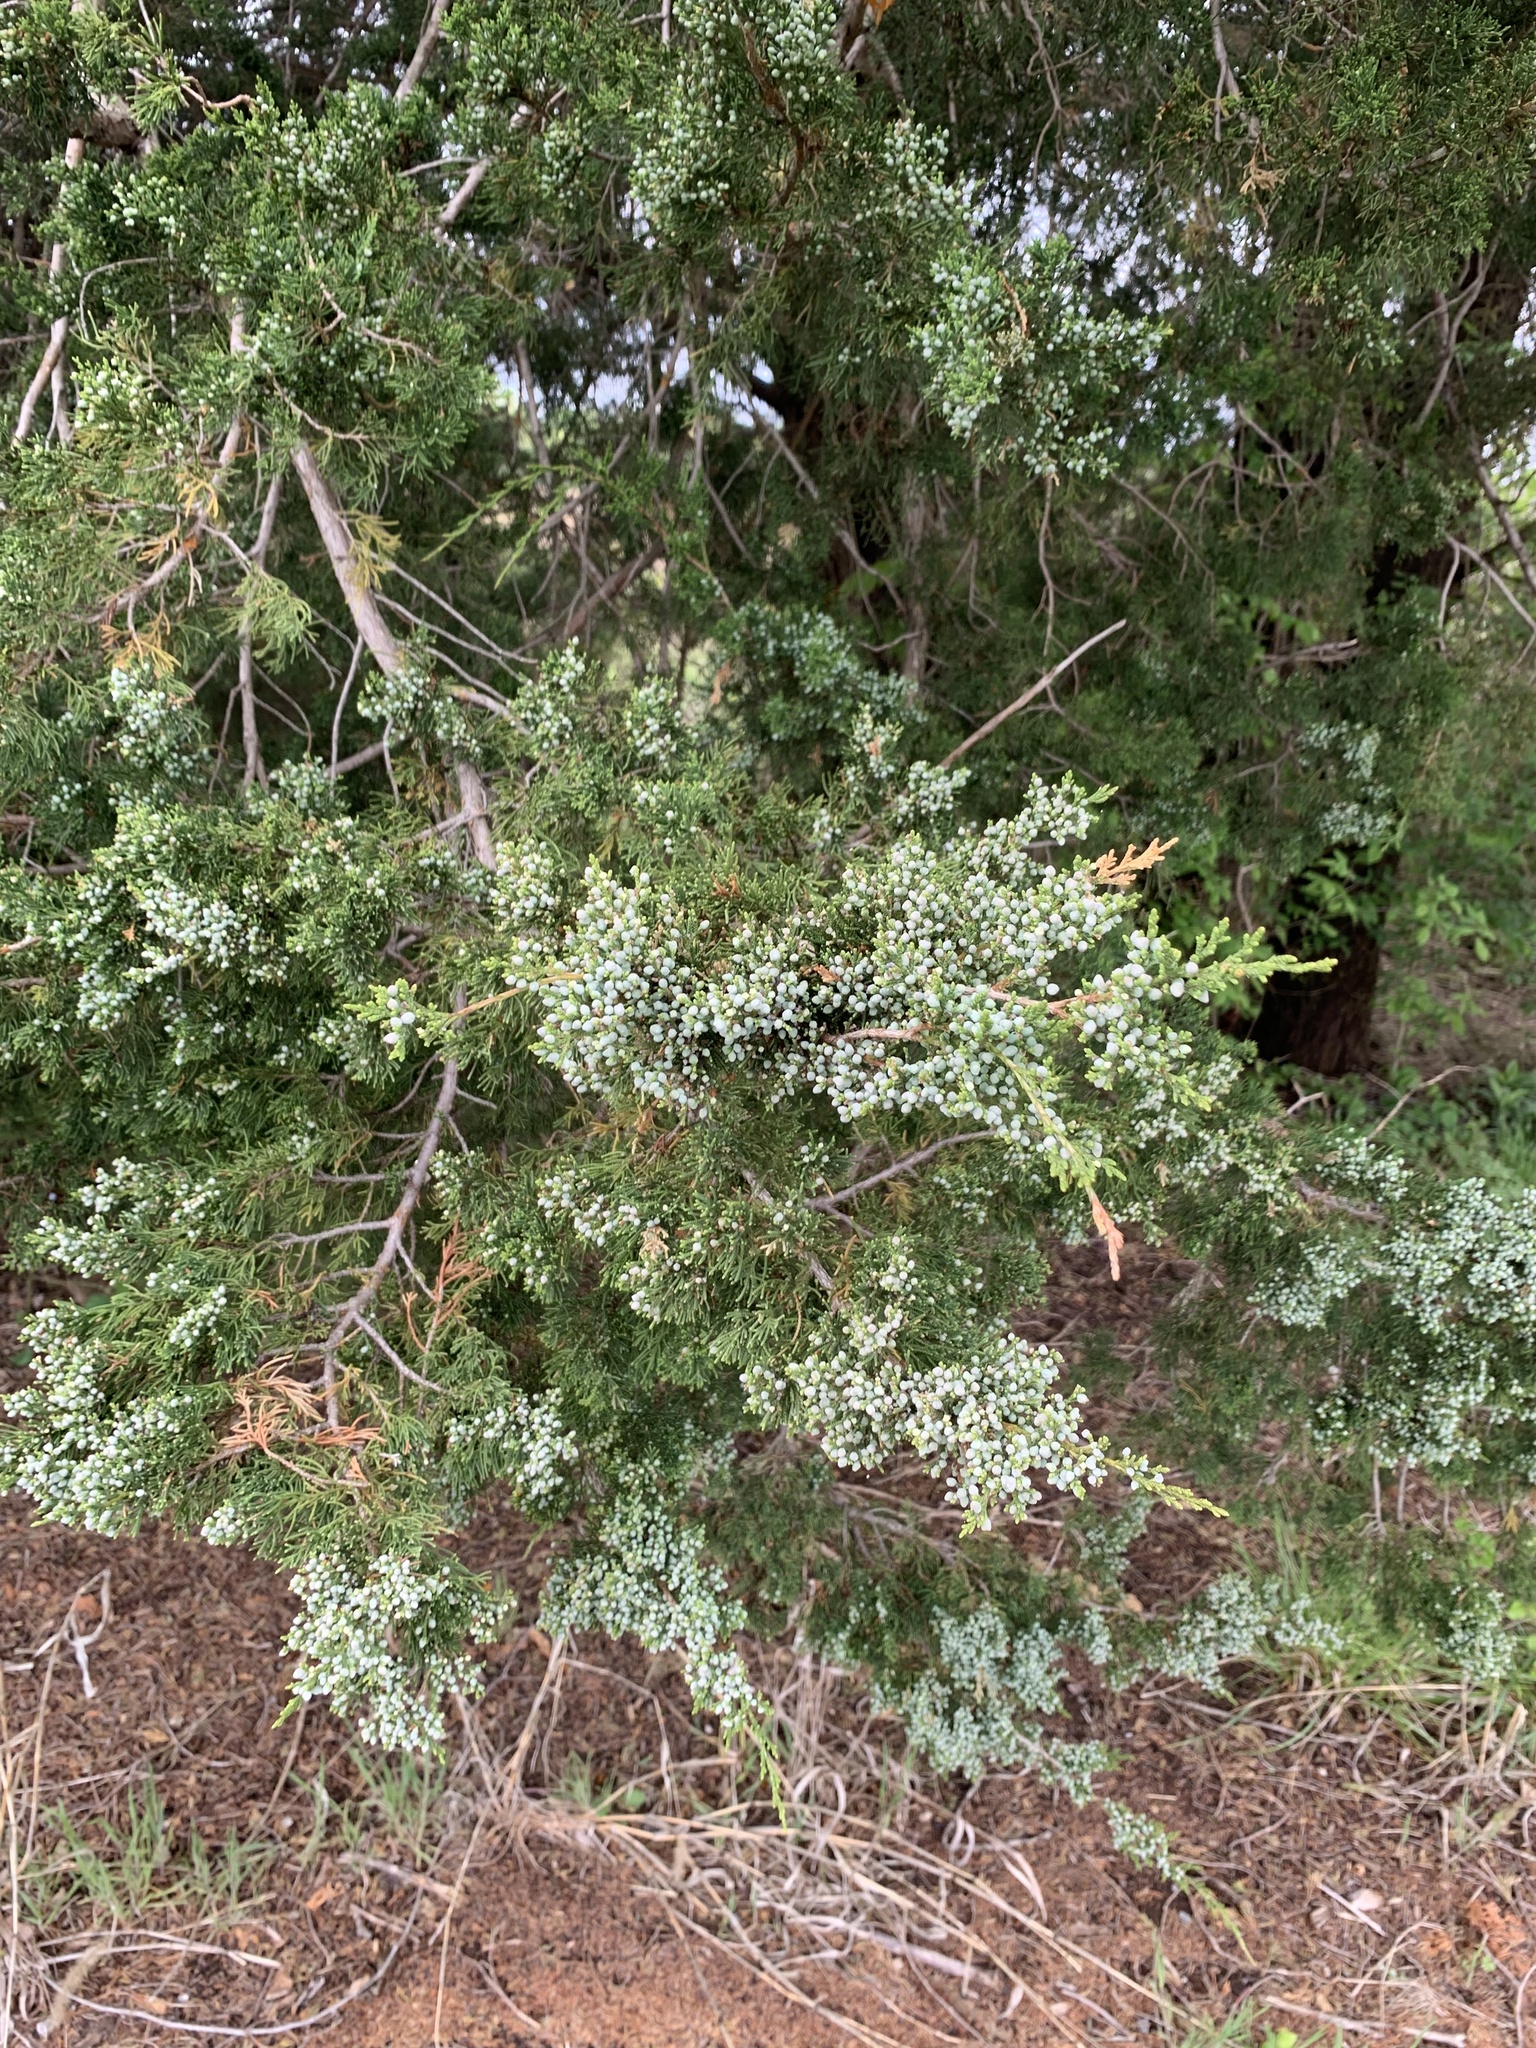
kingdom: Plantae
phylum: Tracheophyta
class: Pinopsida
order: Pinales
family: Cupressaceae
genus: Juniperus
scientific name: Juniperus virginiana
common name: Red juniper
